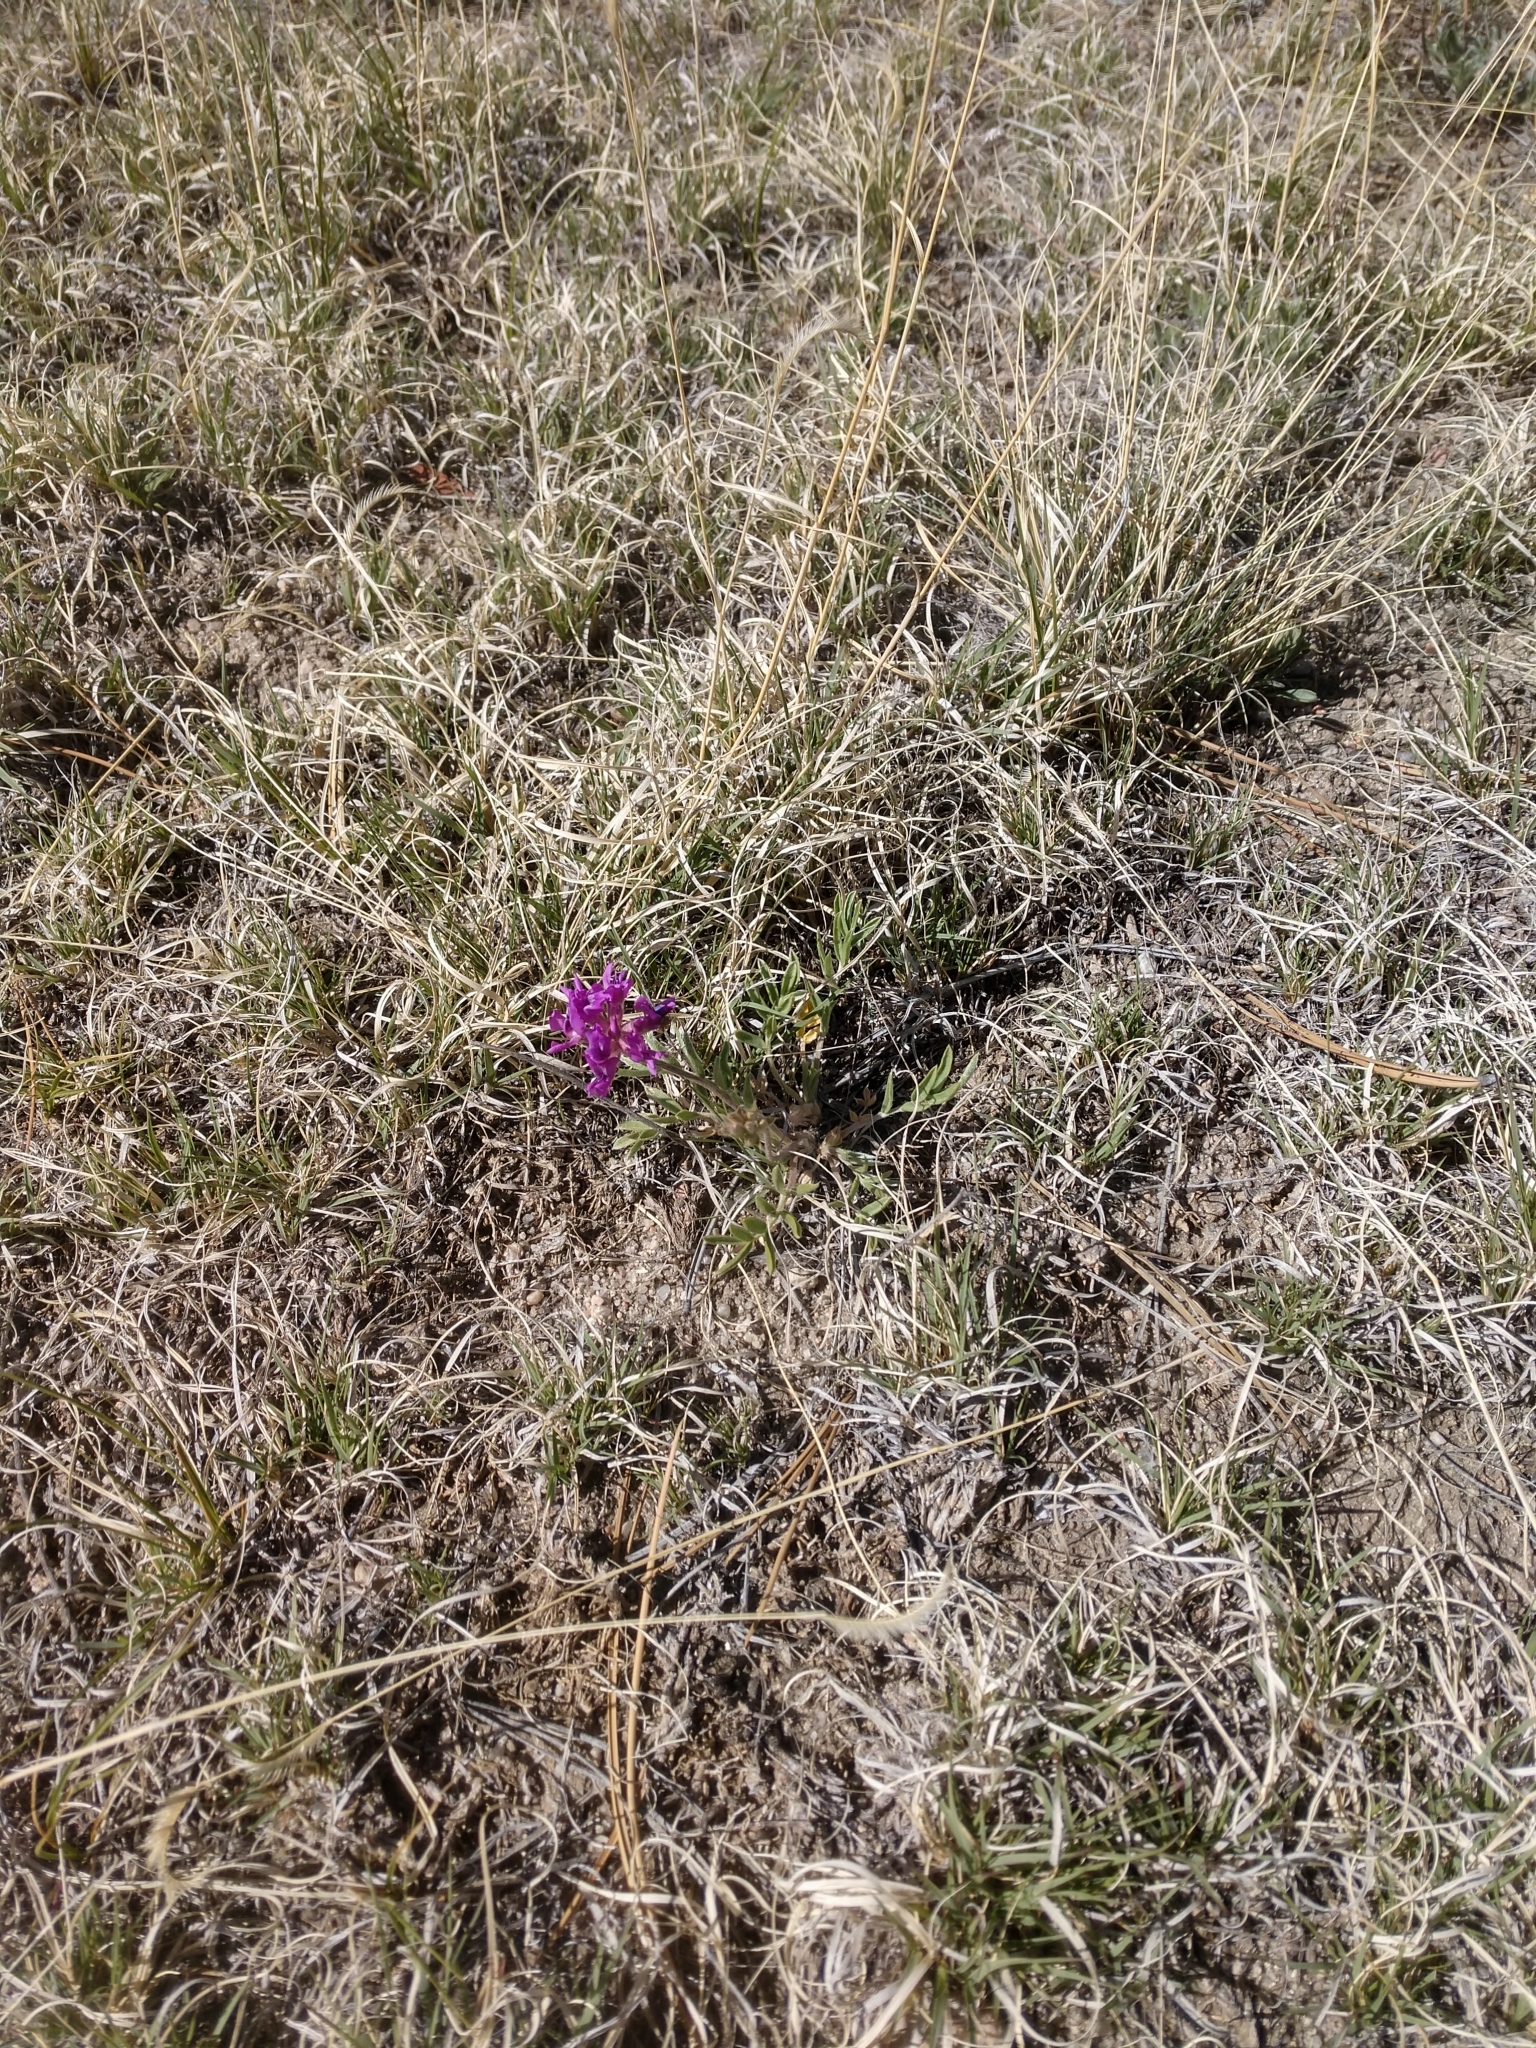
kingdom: Plantae
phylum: Tracheophyta
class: Magnoliopsida
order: Fabales
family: Fabaceae
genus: Oxytropis
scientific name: Oxytropis lambertii
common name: Purple locoweed
